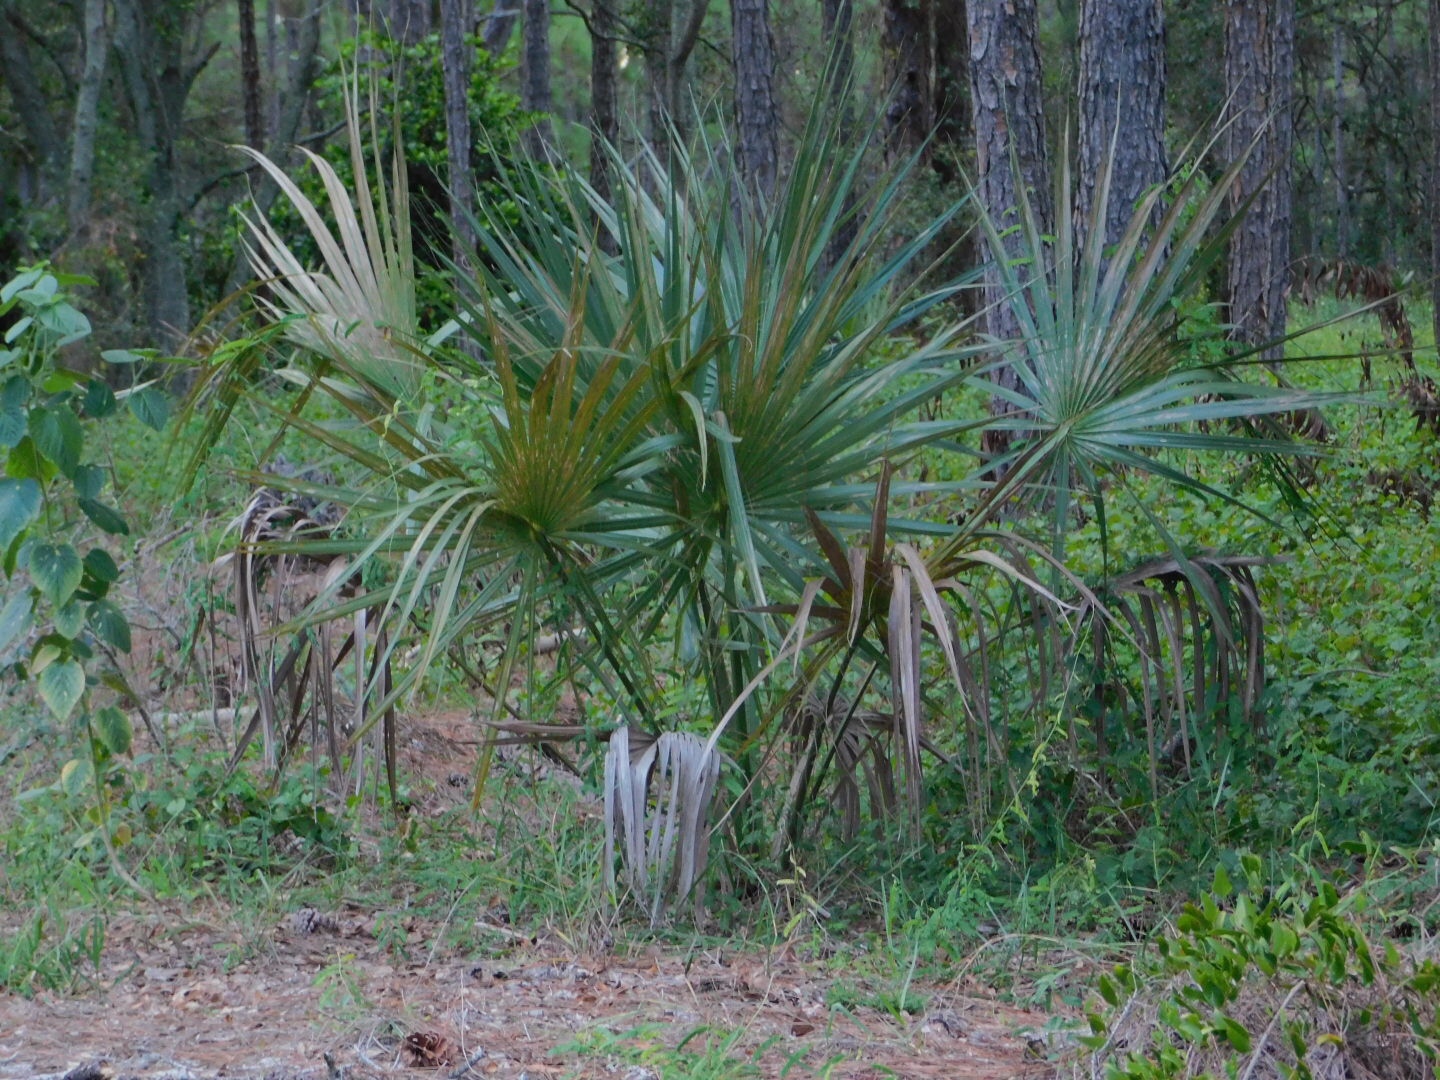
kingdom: Plantae
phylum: Tracheophyta
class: Liliopsida
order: Arecales
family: Arecaceae
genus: Sabal
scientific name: Sabal palmetto
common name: Blue palmetto
